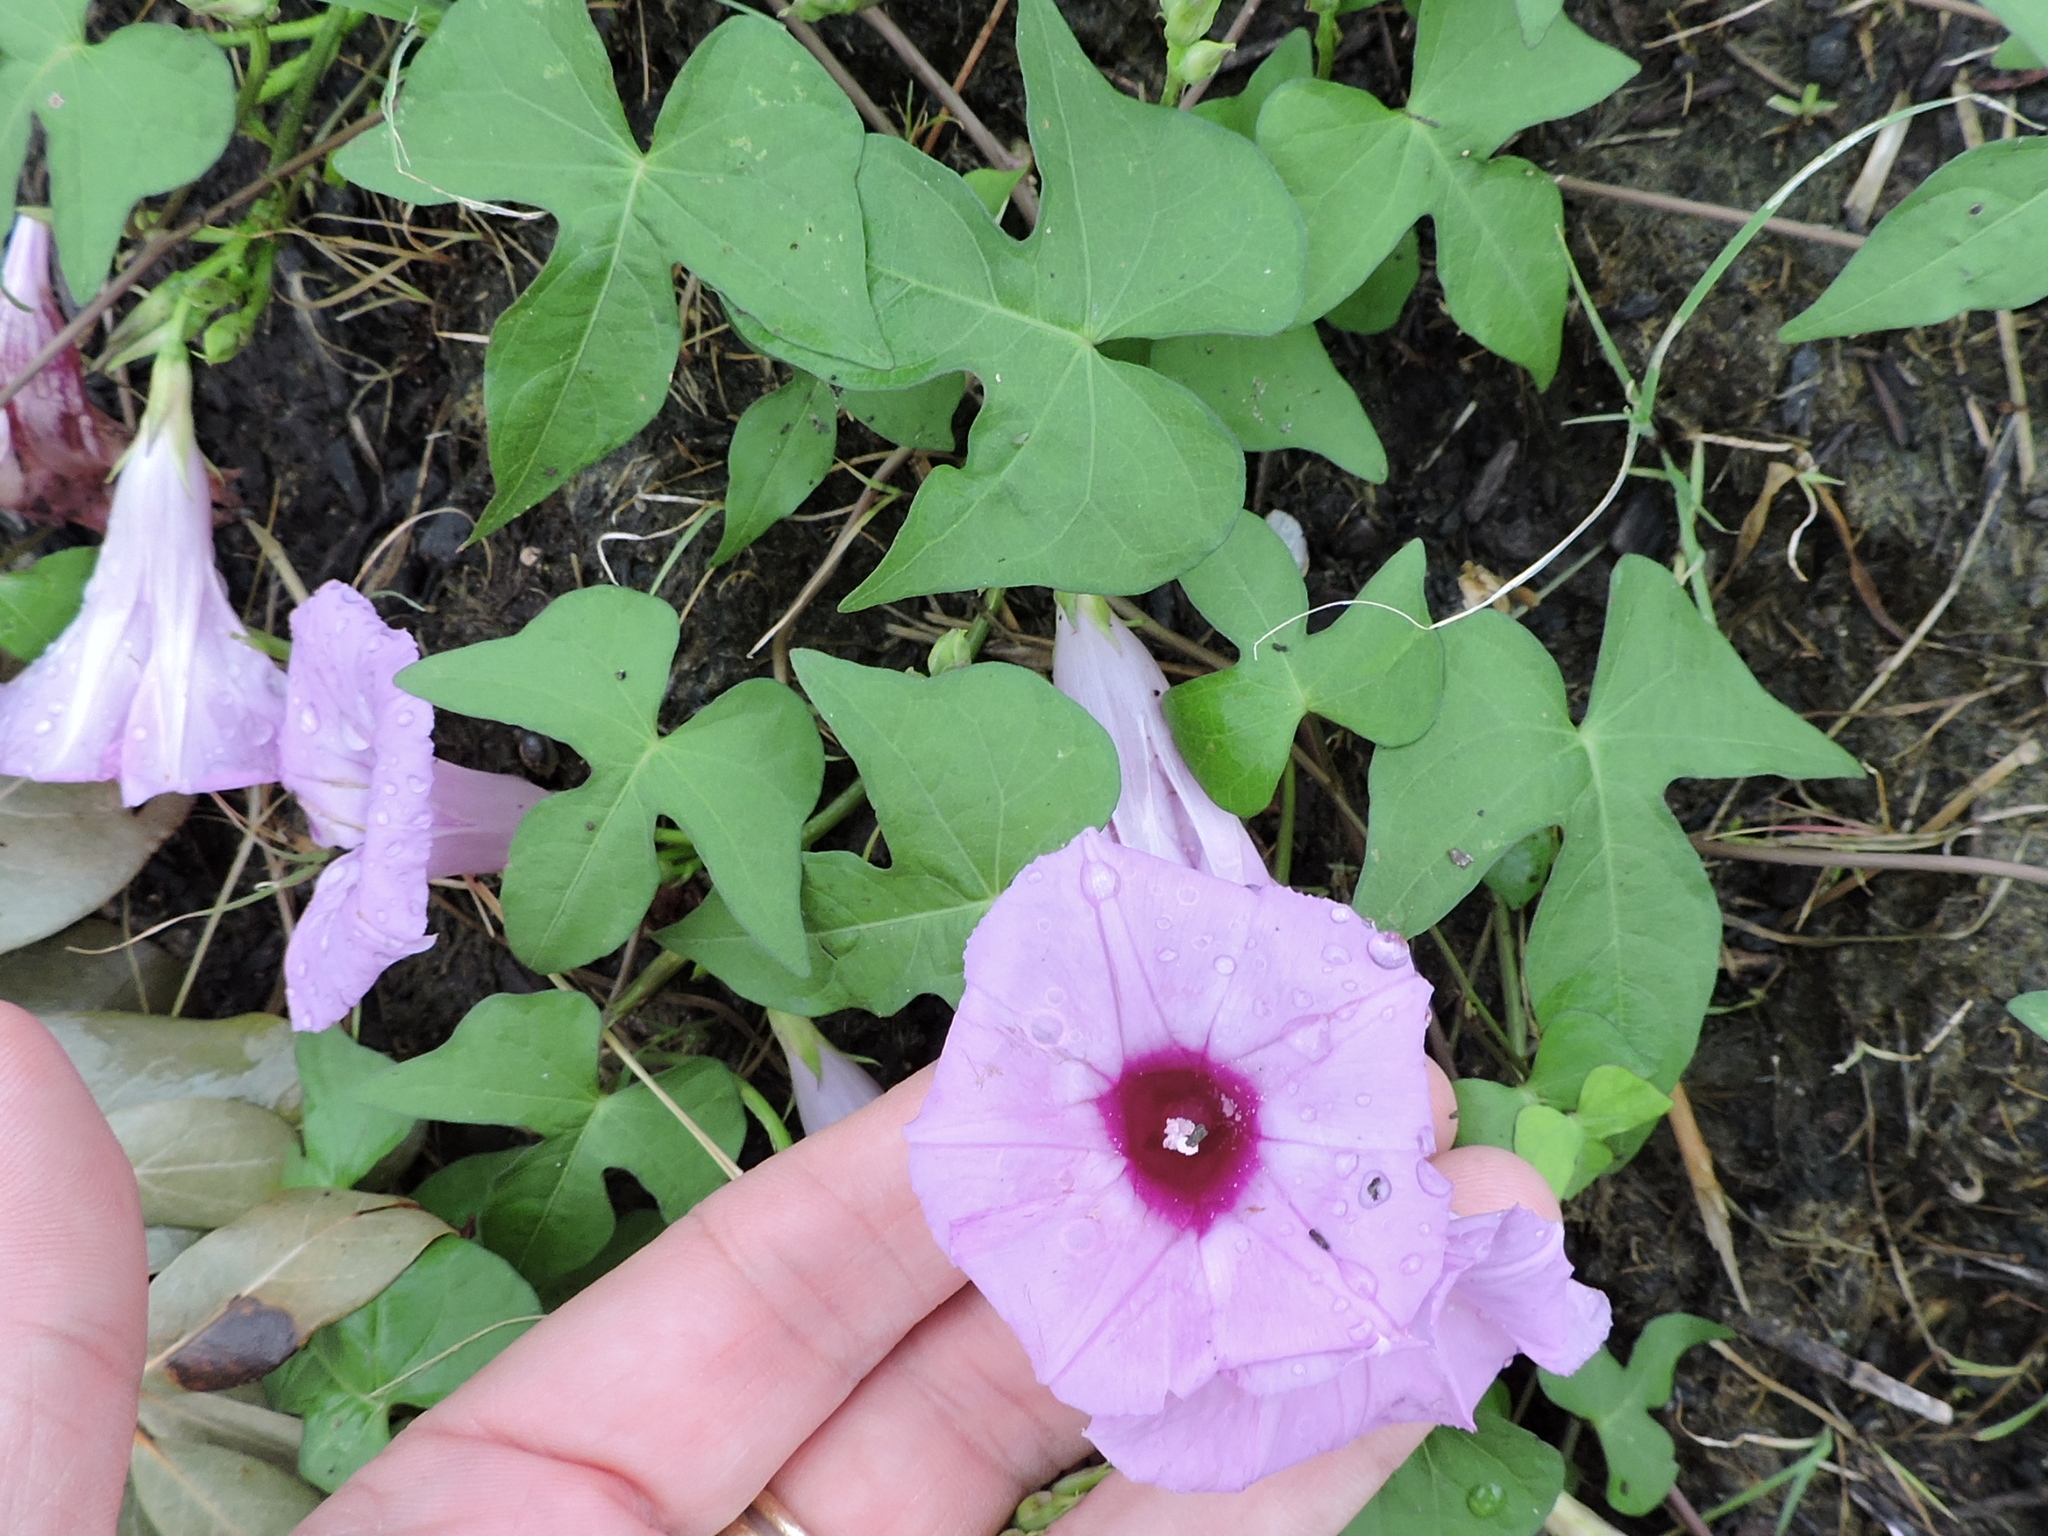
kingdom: Plantae
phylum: Tracheophyta
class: Magnoliopsida
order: Solanales
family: Convolvulaceae
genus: Ipomoea
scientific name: Ipomoea cordatotriloba
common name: Cotton morning glory
